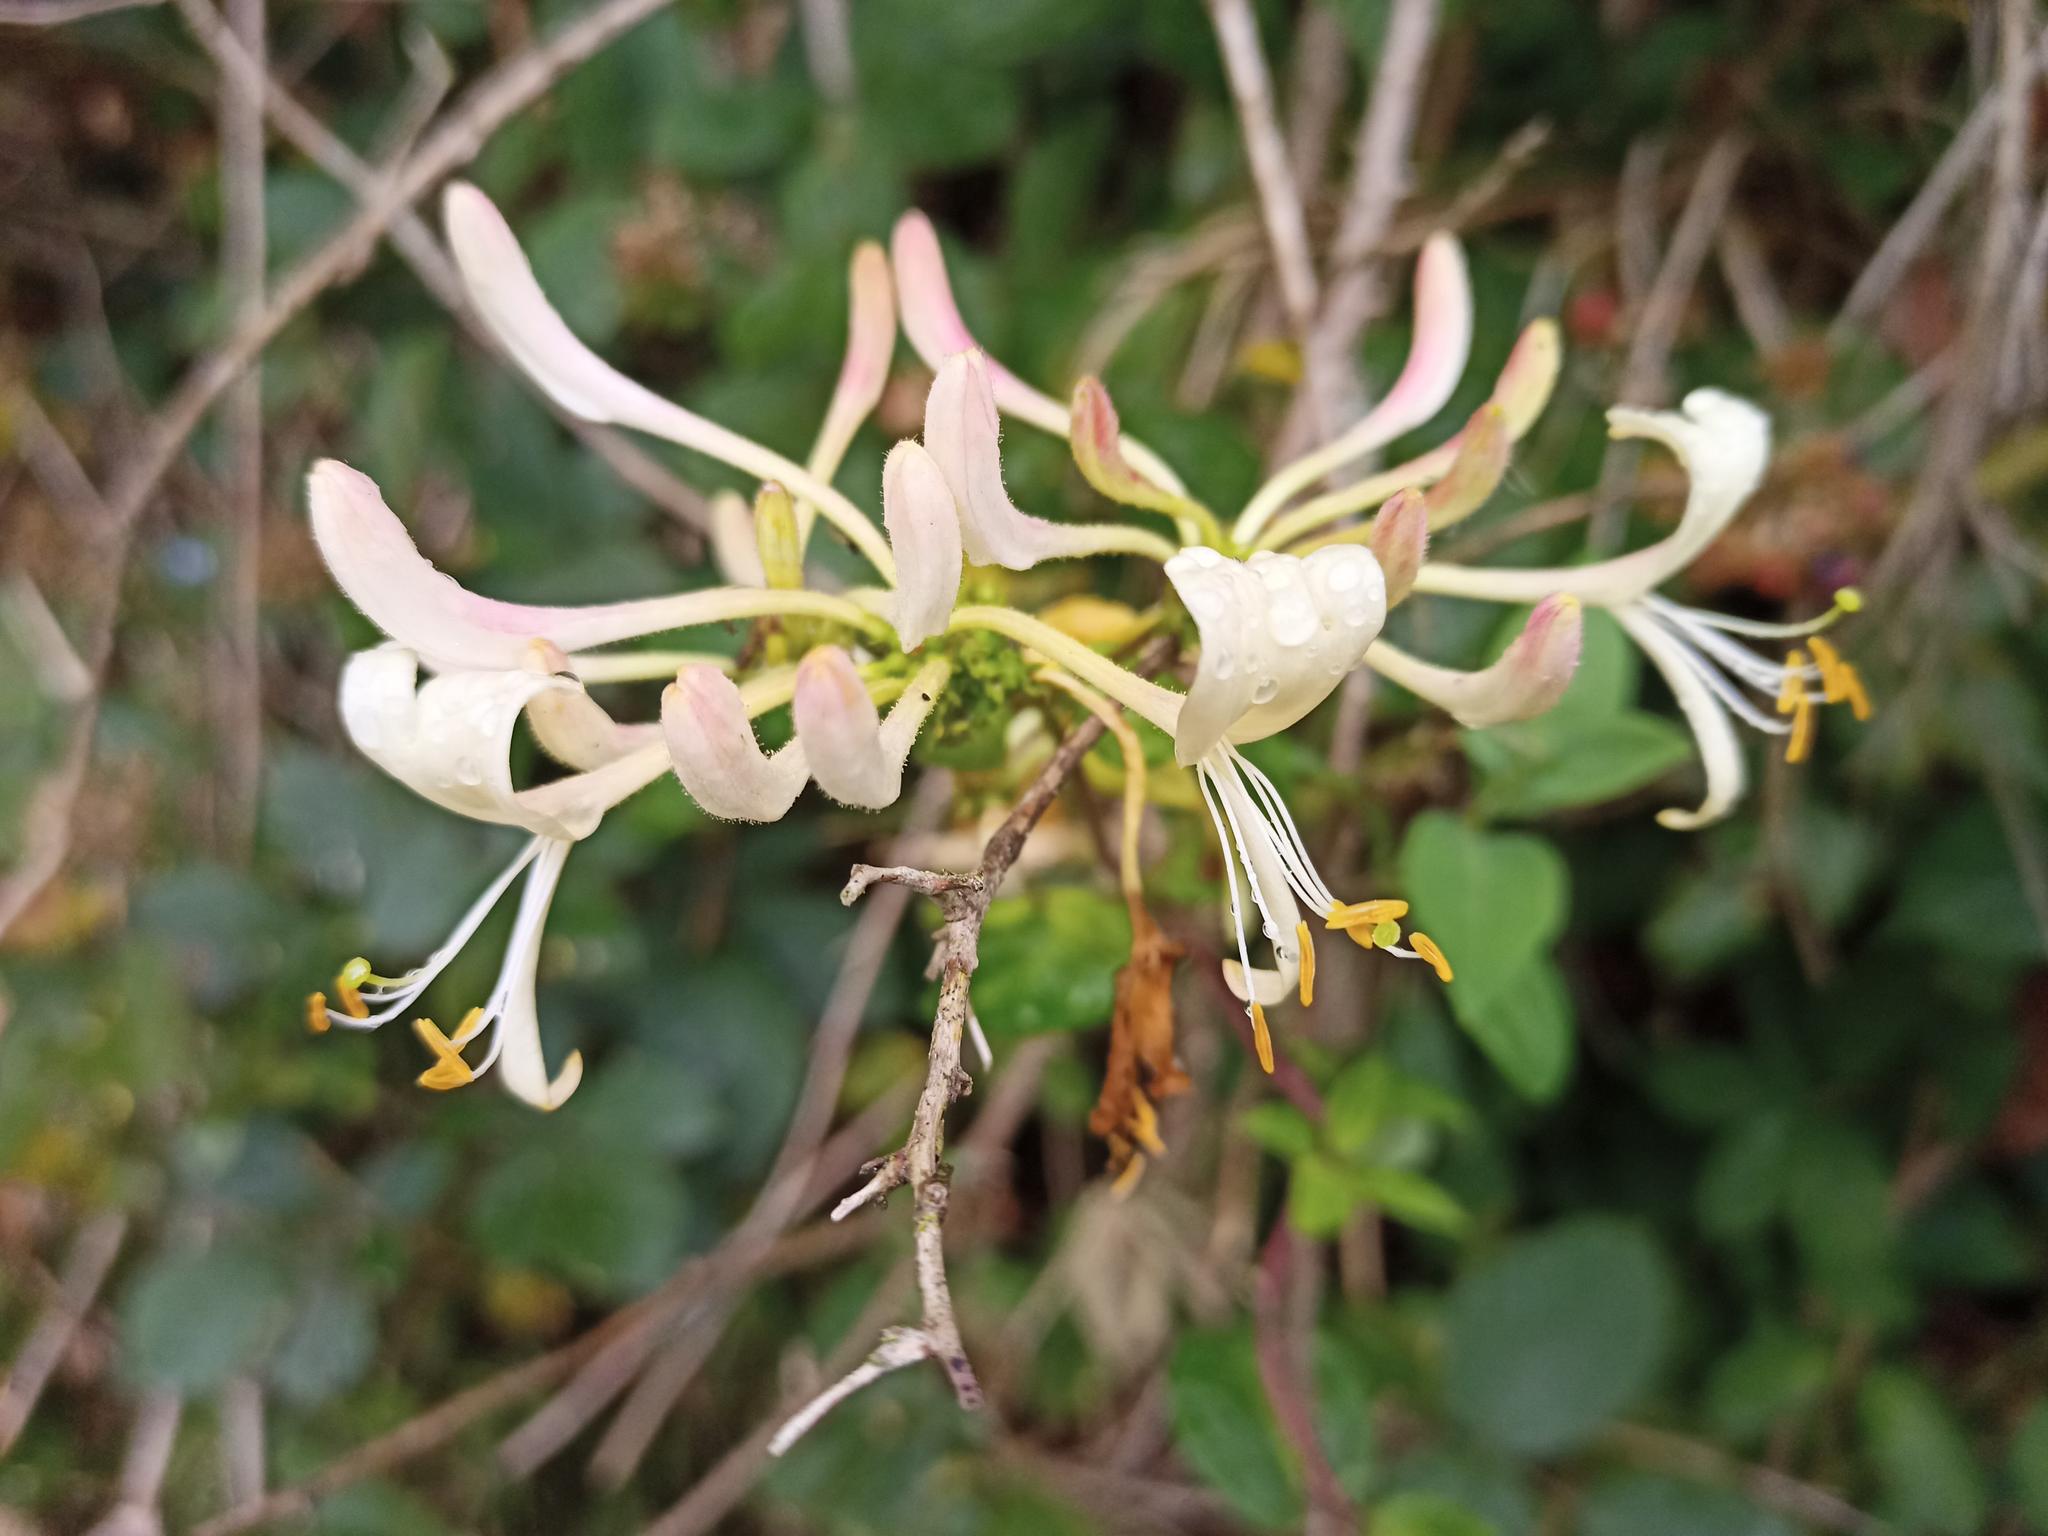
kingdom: Plantae
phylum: Tracheophyta
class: Magnoliopsida
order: Dipsacales
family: Caprifoliaceae
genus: Lonicera
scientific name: Lonicera periclymenum
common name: European honeysuckle
